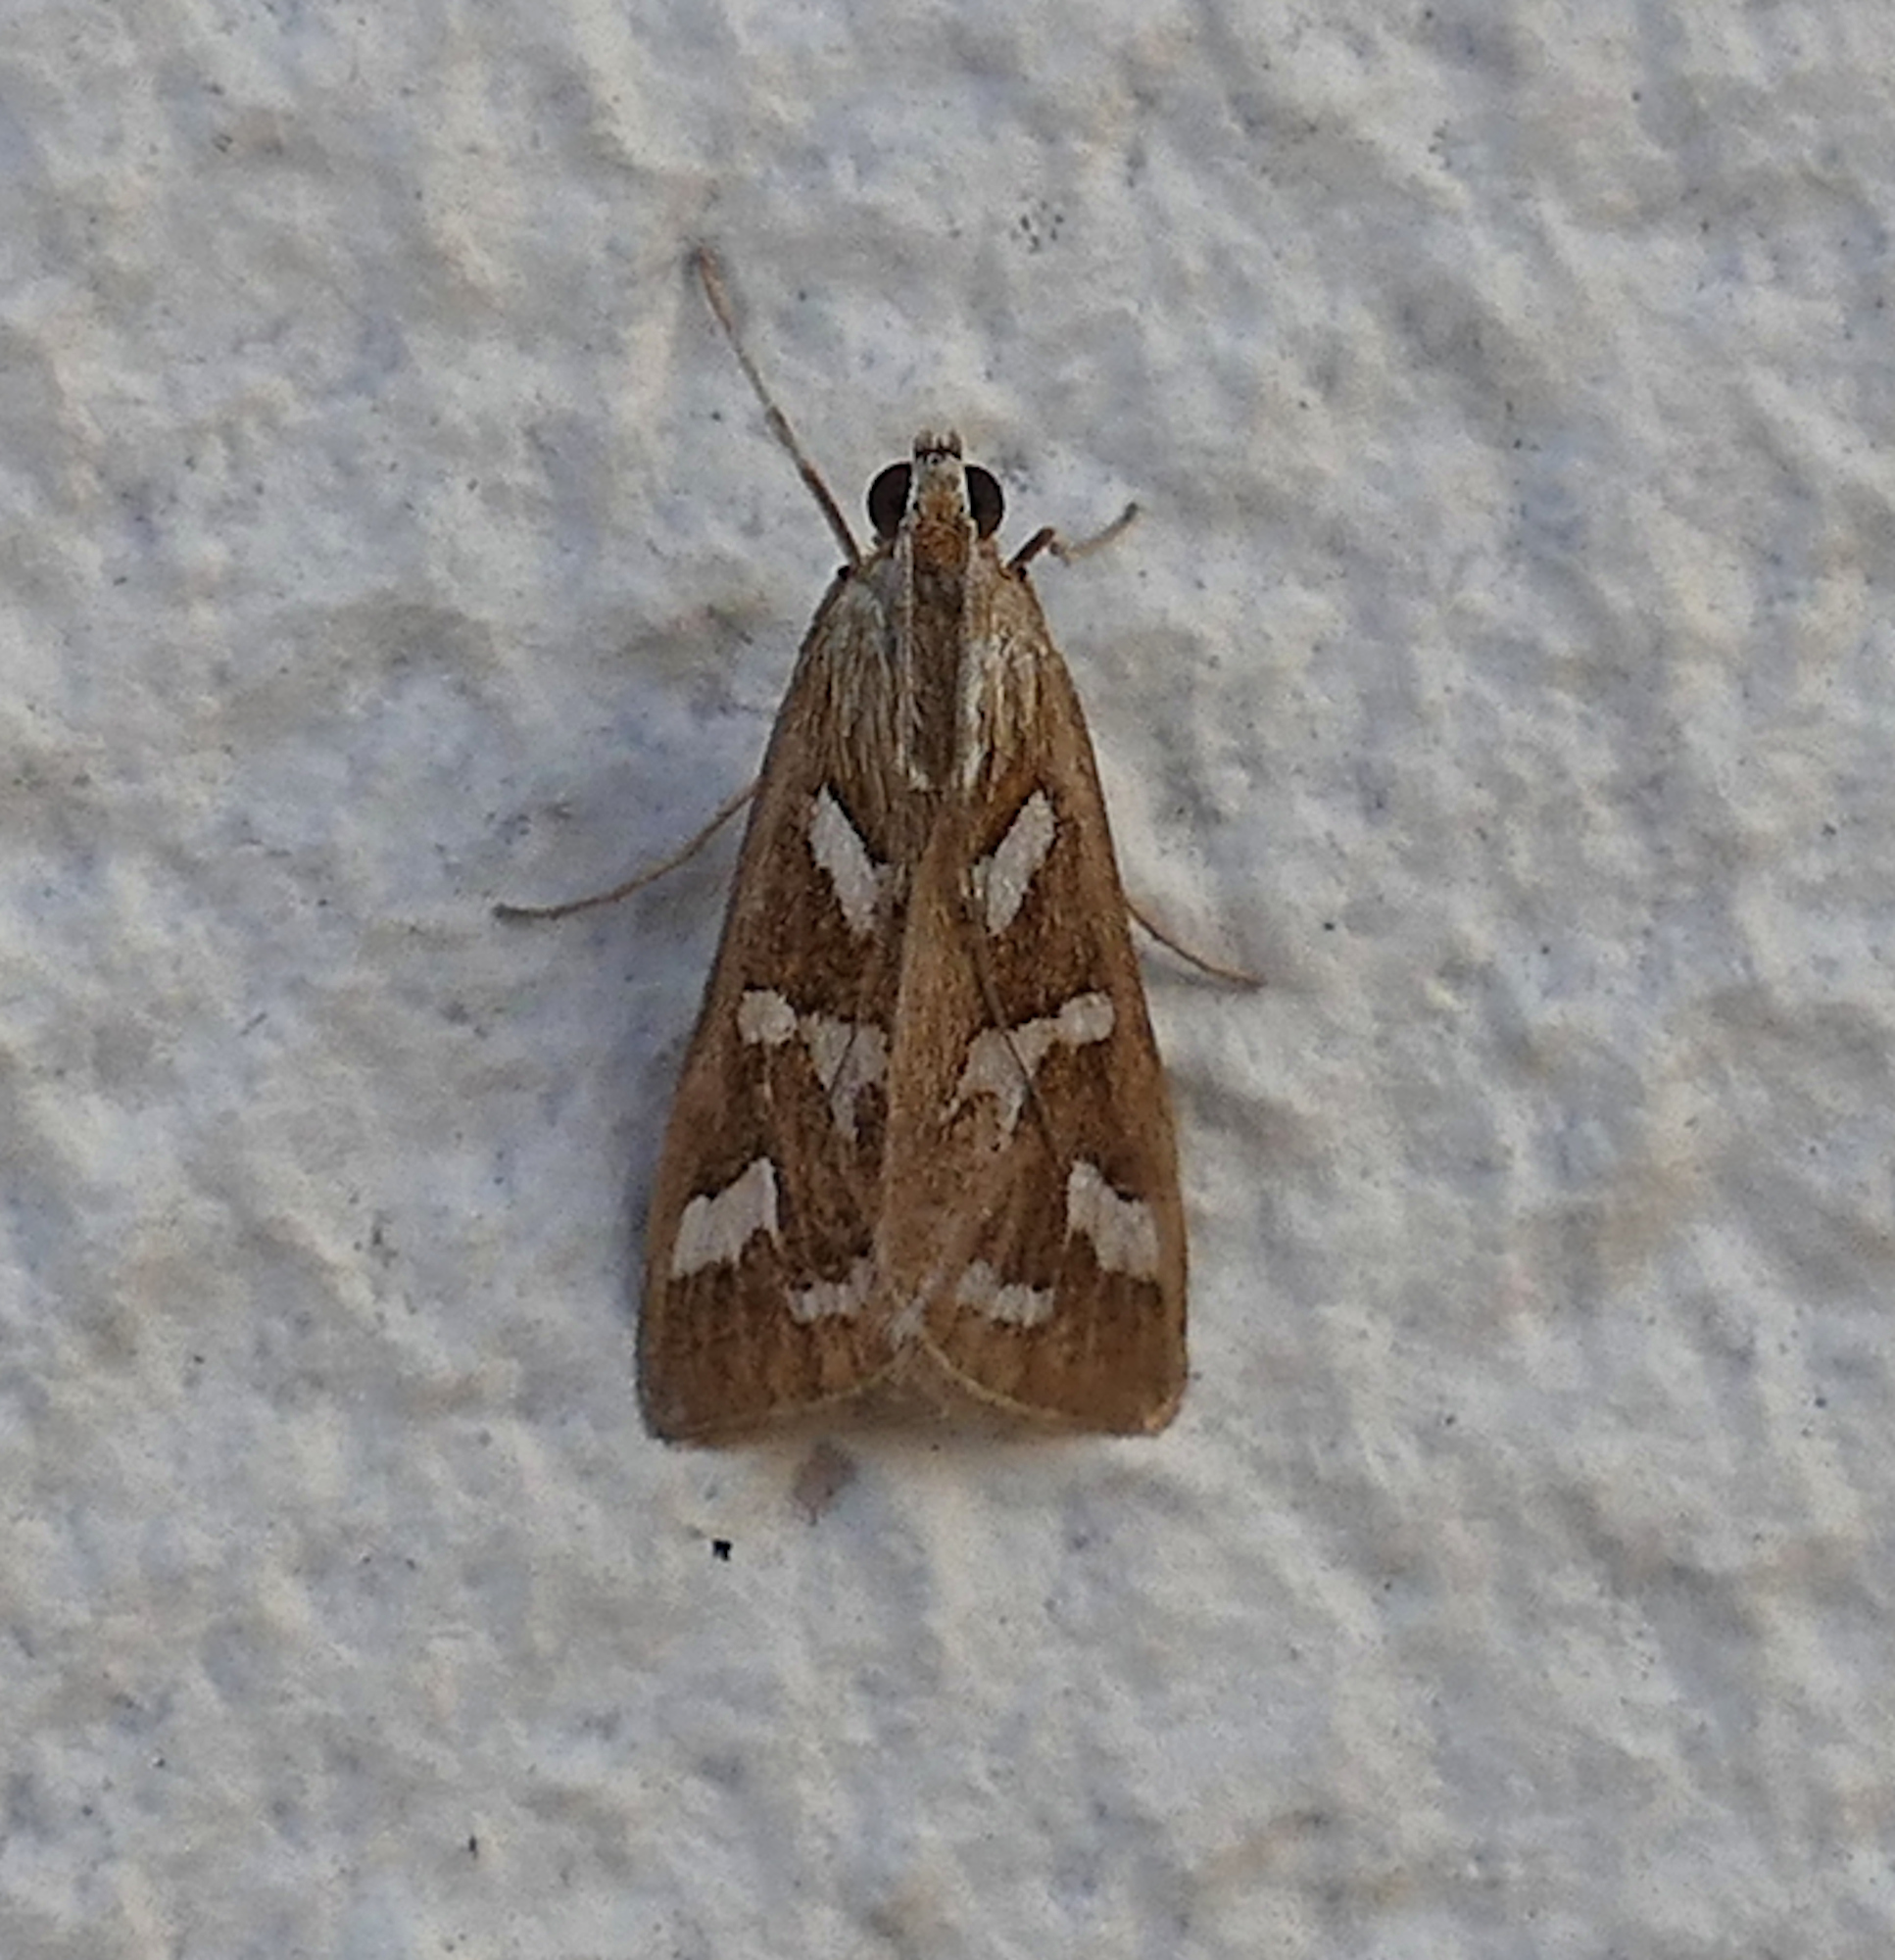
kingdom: Animalia
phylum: Arthropoda
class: Insecta
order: Lepidoptera
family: Crambidae
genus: Diastictis
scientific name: Diastictis fracturalis
